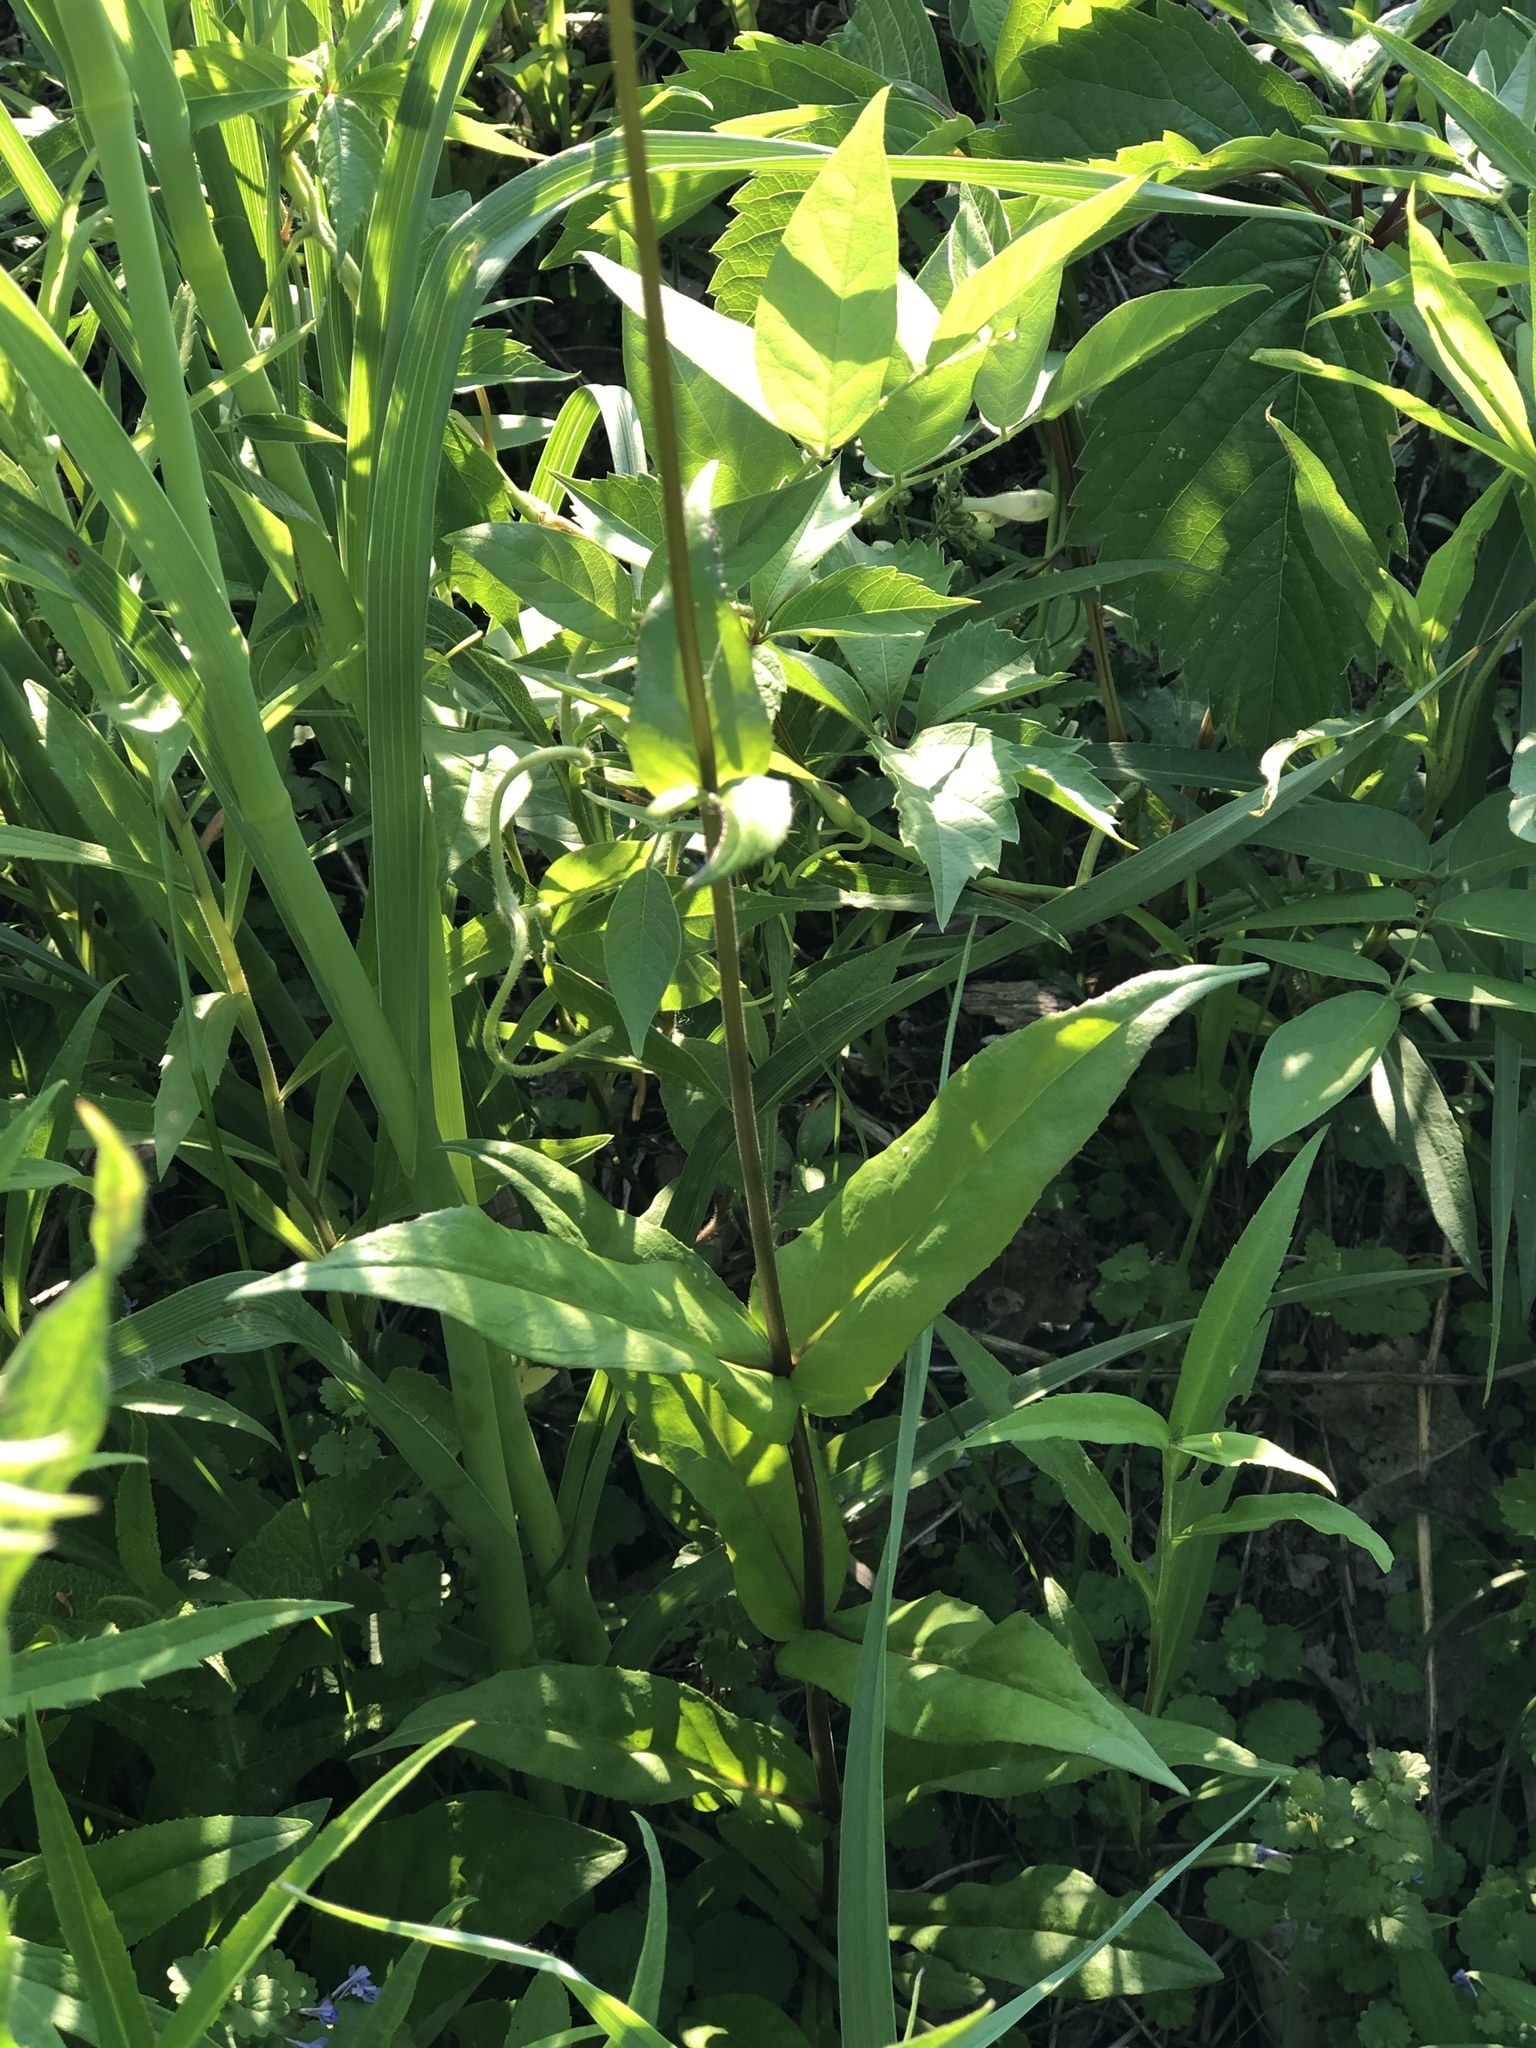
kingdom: Plantae
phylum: Tracheophyta
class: Magnoliopsida
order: Lamiales
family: Plantaginaceae
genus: Penstemon
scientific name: Penstemon digitalis
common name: Foxglove beardtongue
